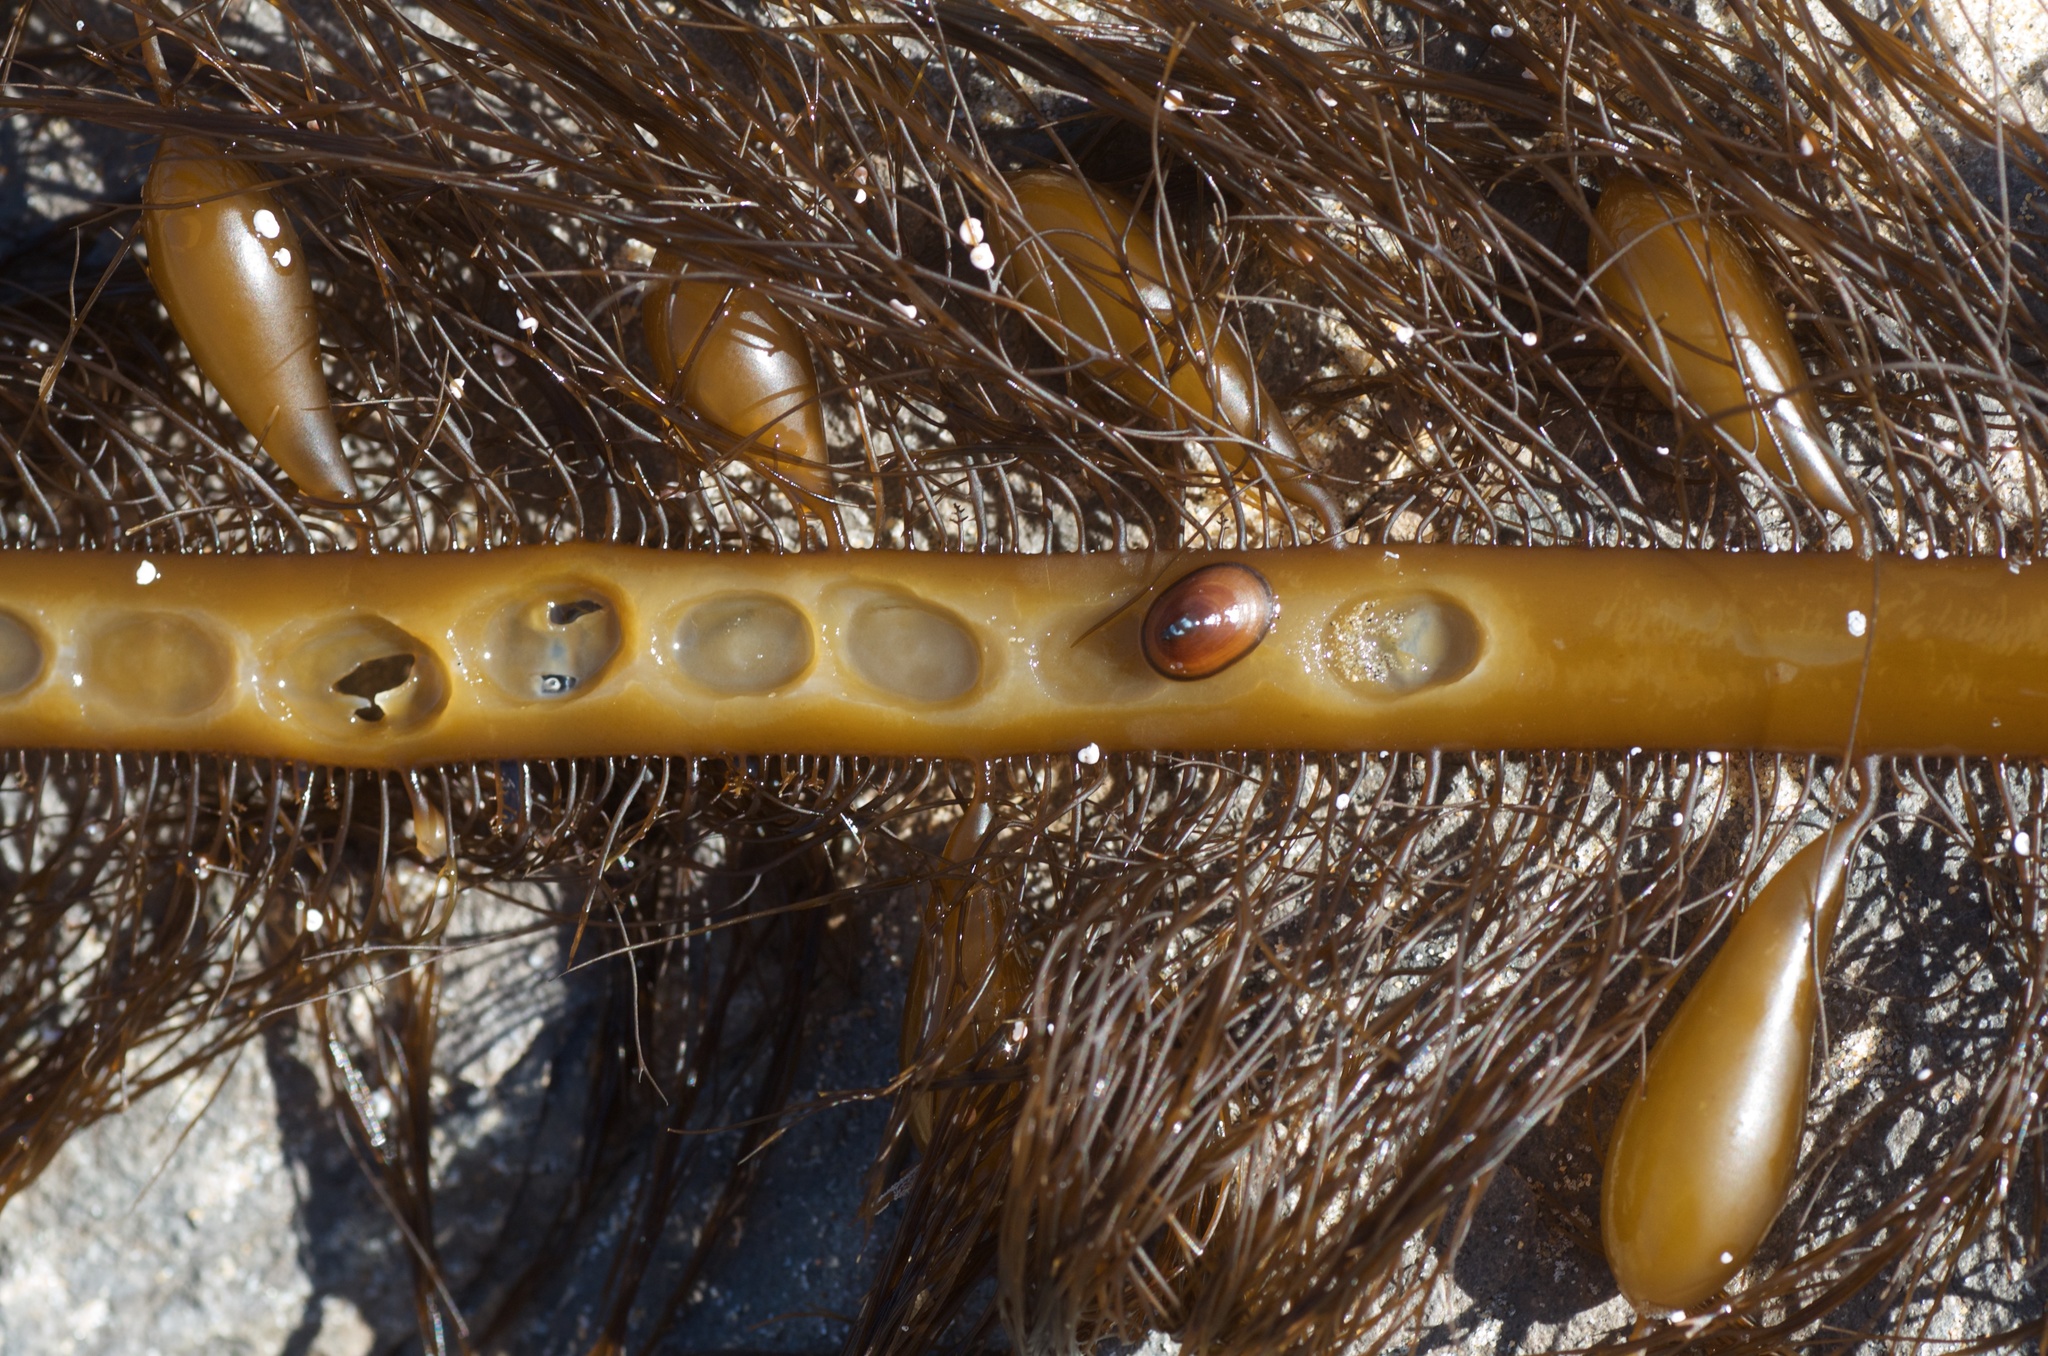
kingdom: Animalia
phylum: Mollusca
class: Gastropoda
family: Lottiidae
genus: Discurria
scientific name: Discurria insessa
